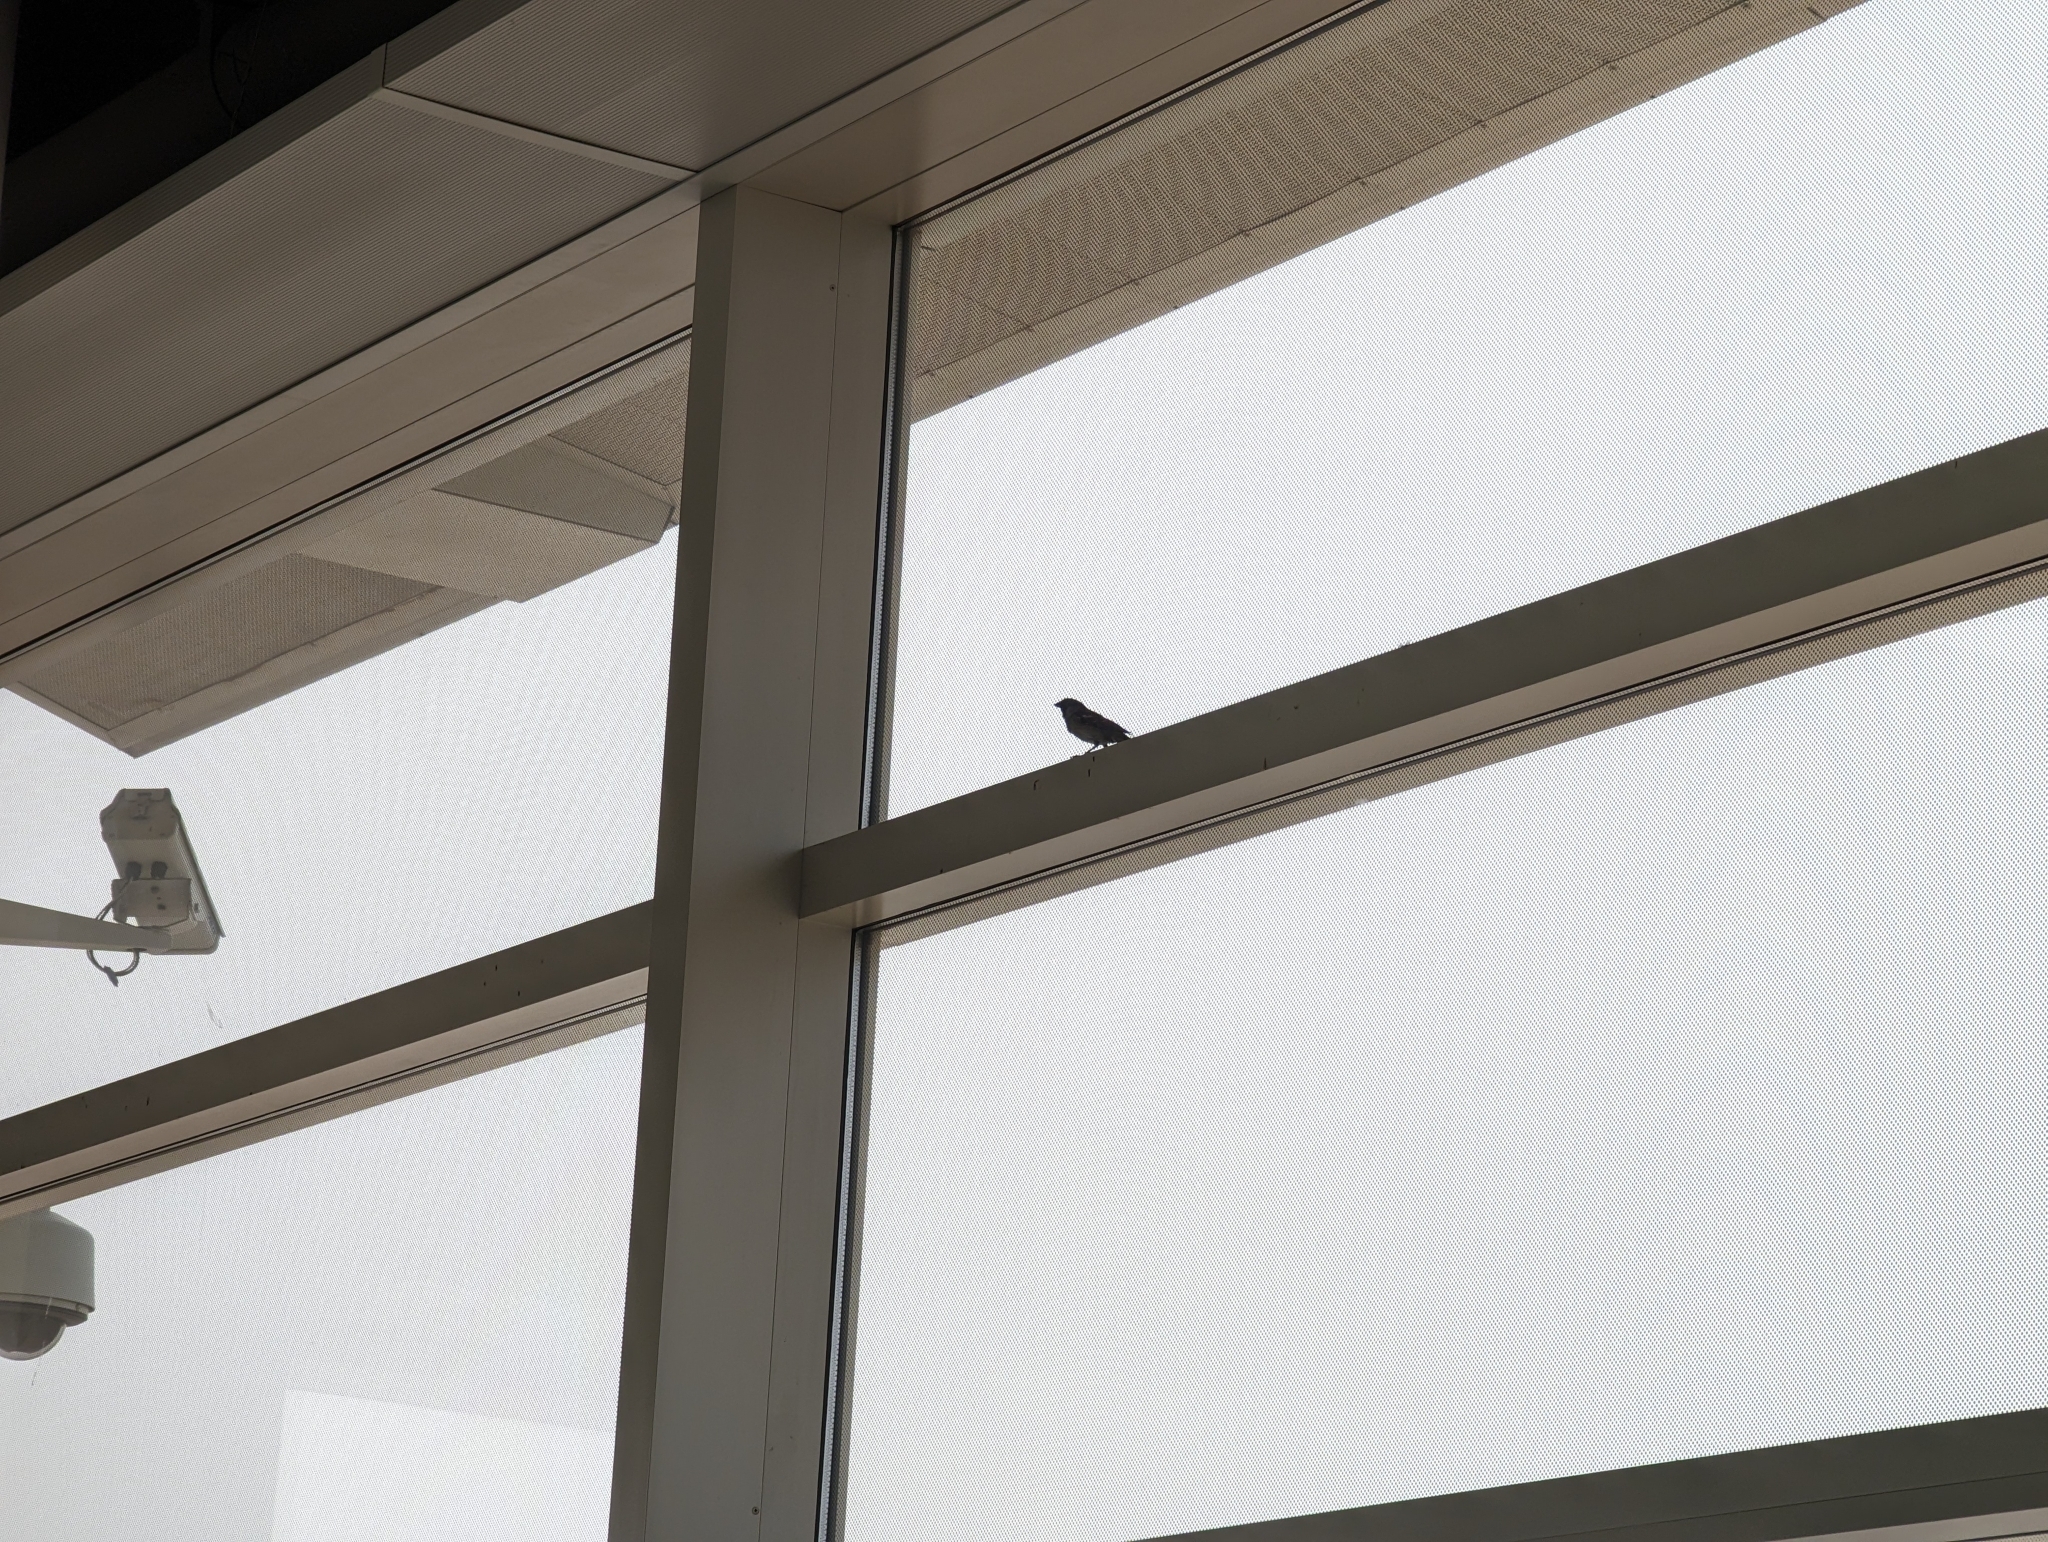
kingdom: Animalia
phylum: Chordata
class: Aves
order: Passeriformes
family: Passeridae
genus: Passer
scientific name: Passer domesticus
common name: House sparrow
